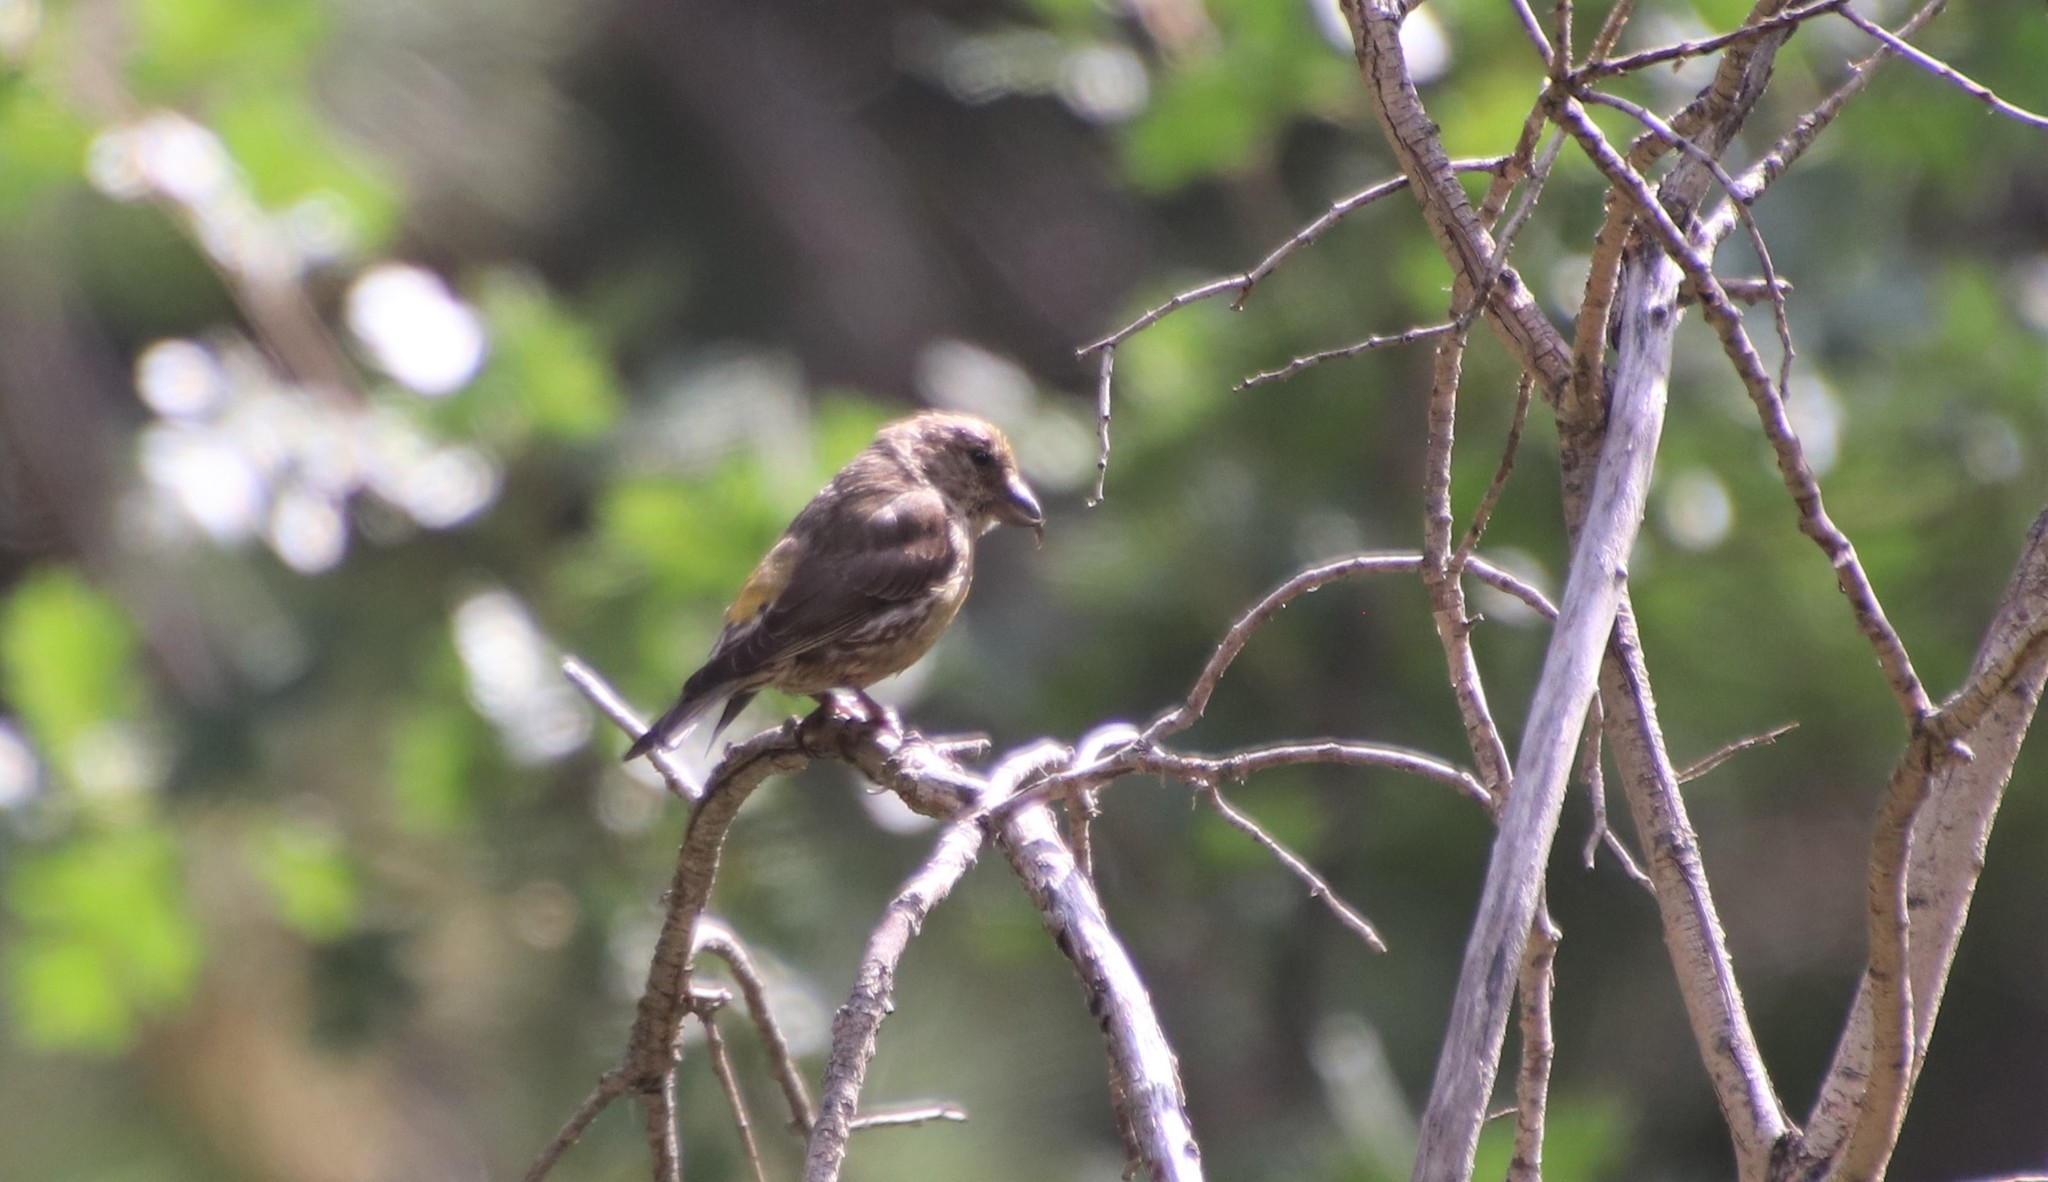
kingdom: Animalia
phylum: Chordata
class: Aves
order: Passeriformes
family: Fringillidae
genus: Loxia
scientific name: Loxia curvirostra
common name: Red crossbill
